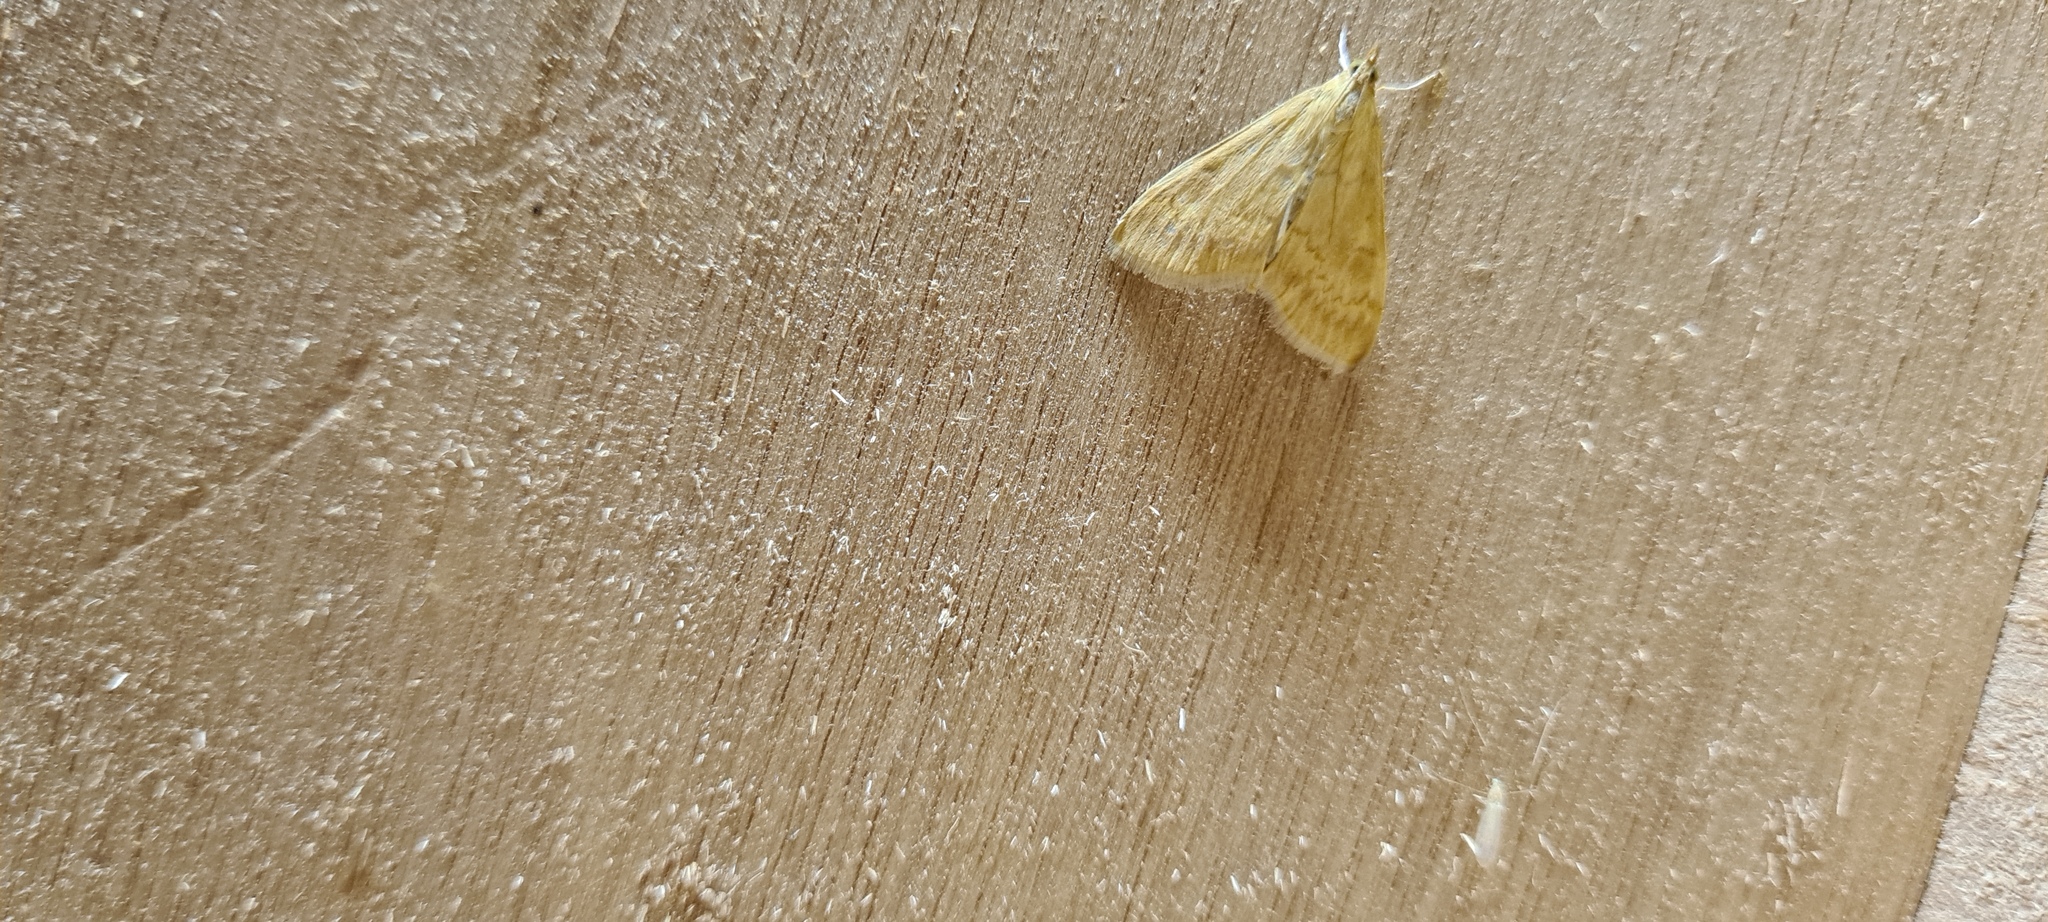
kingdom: Animalia
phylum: Arthropoda
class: Insecta
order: Lepidoptera
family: Crambidae
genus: Ostrinia
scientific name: Ostrinia nubilalis
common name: European corn borer
